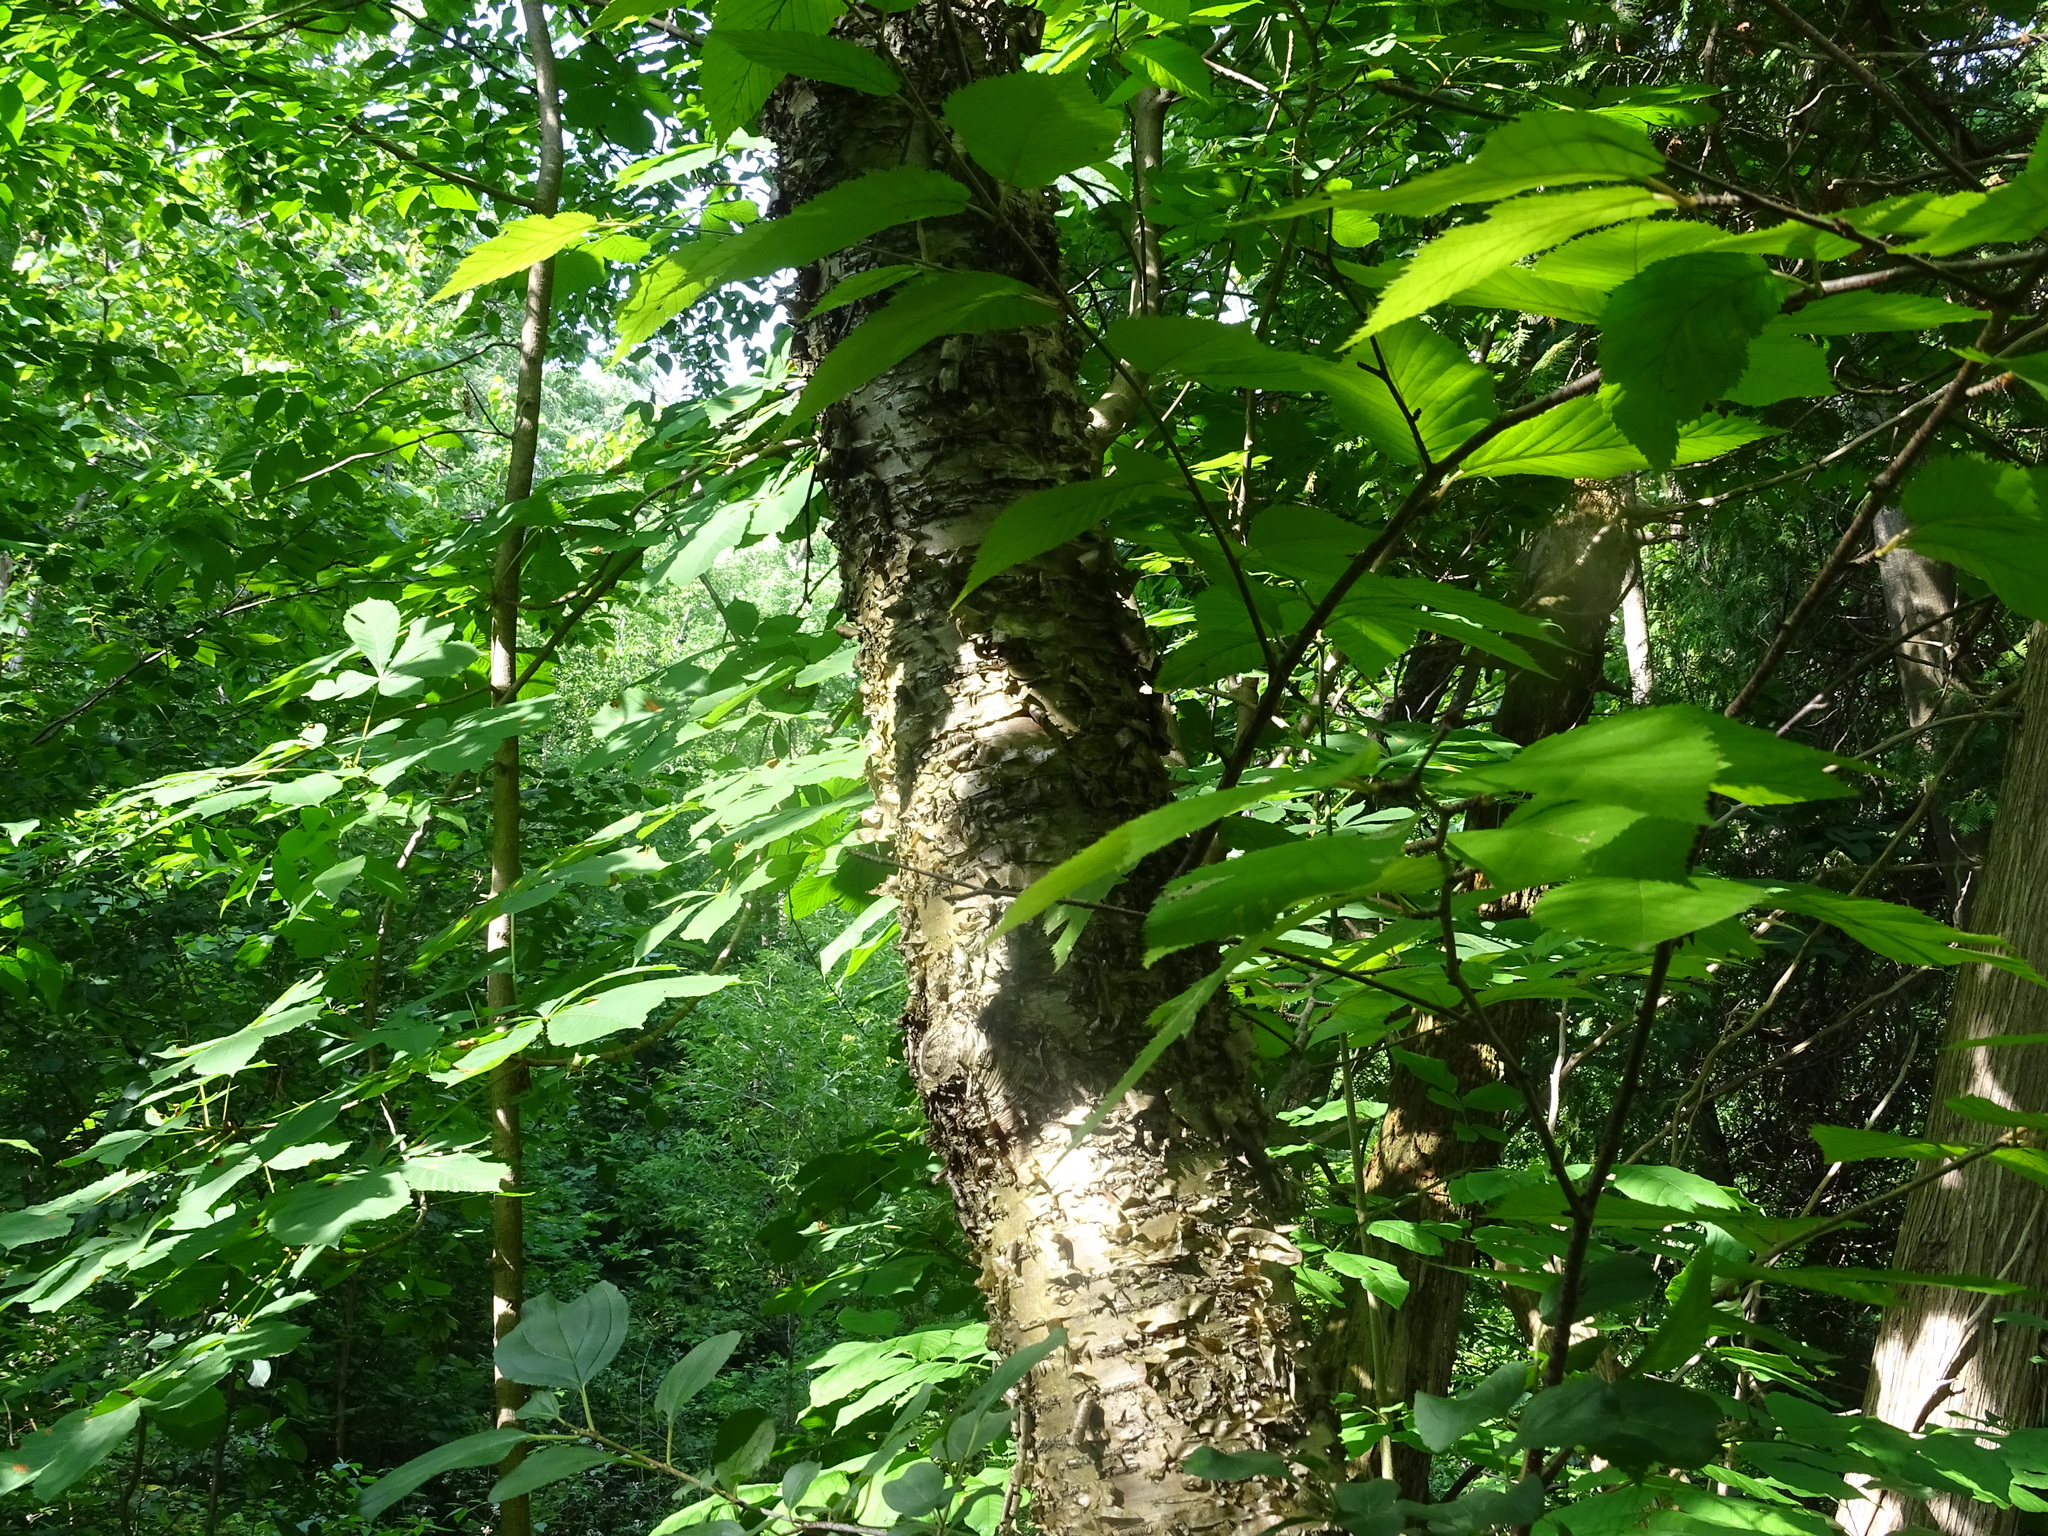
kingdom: Plantae
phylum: Tracheophyta
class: Magnoliopsida
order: Fagales
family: Betulaceae
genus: Betula
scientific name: Betula alleghaniensis
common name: Yellow birch
